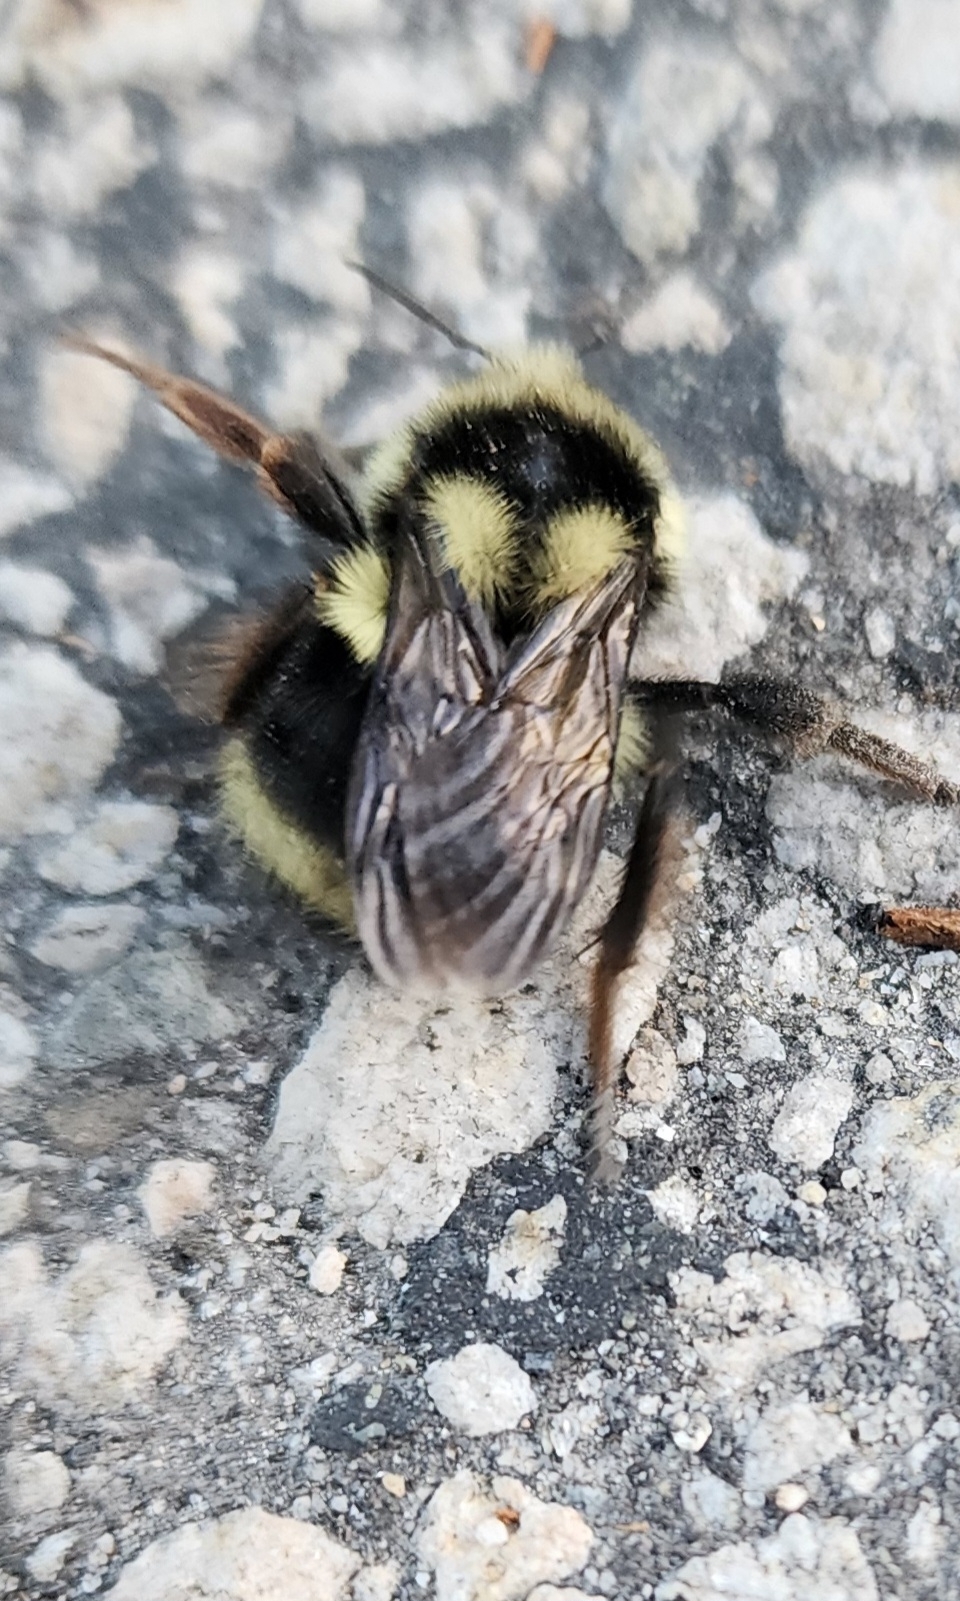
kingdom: Animalia
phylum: Arthropoda
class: Insecta
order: Hymenoptera
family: Apidae
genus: Bombus
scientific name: Bombus vancouverensis
